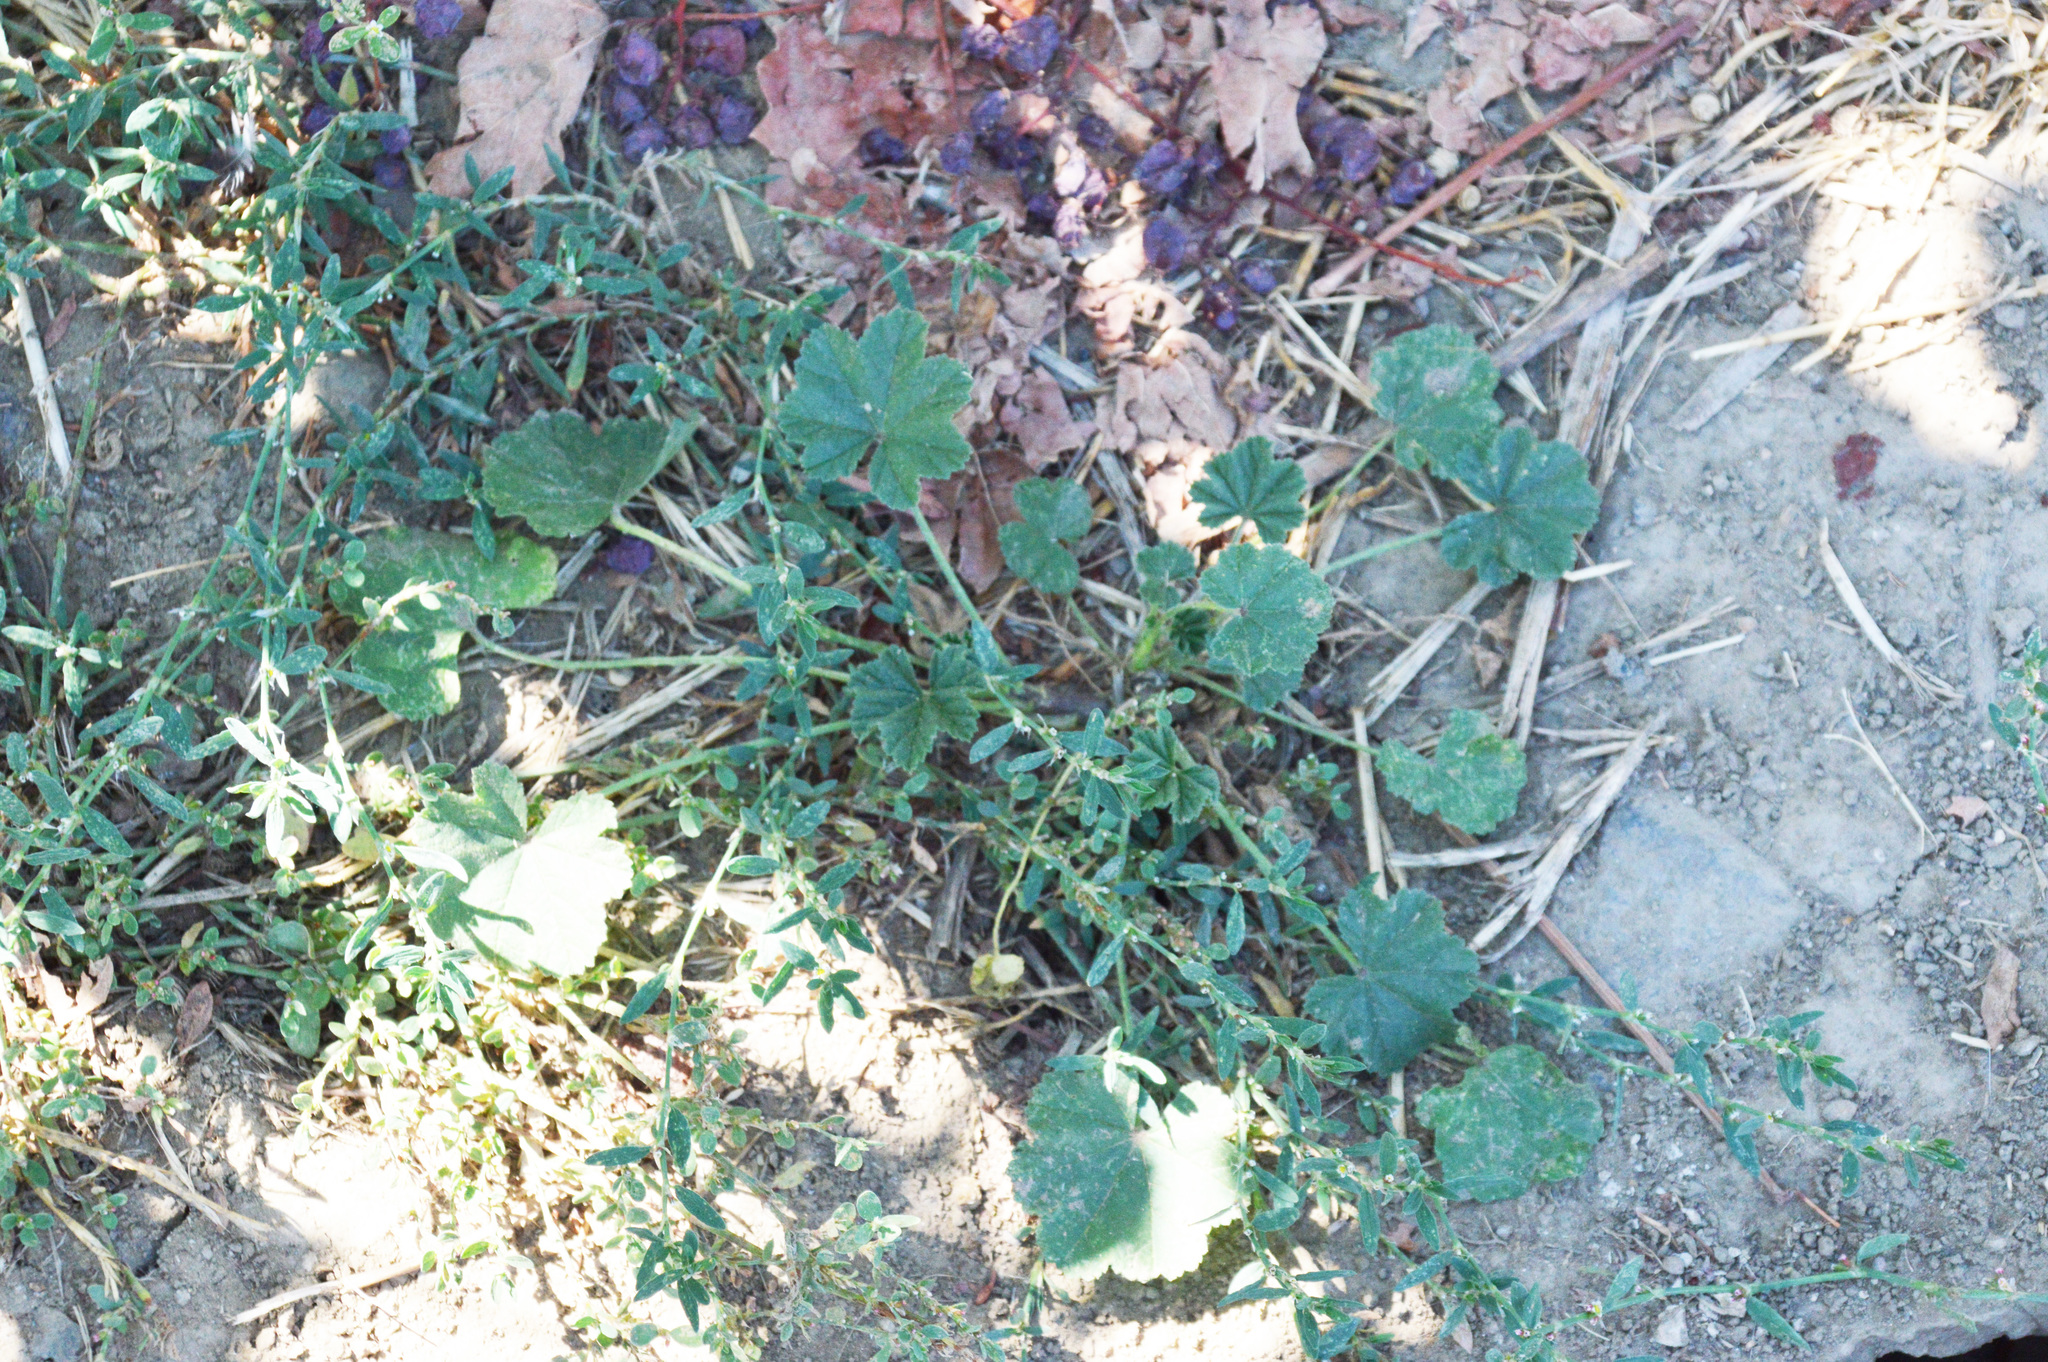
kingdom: Plantae
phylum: Tracheophyta
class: Magnoliopsida
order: Malvales
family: Malvaceae
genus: Malva
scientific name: Malva
